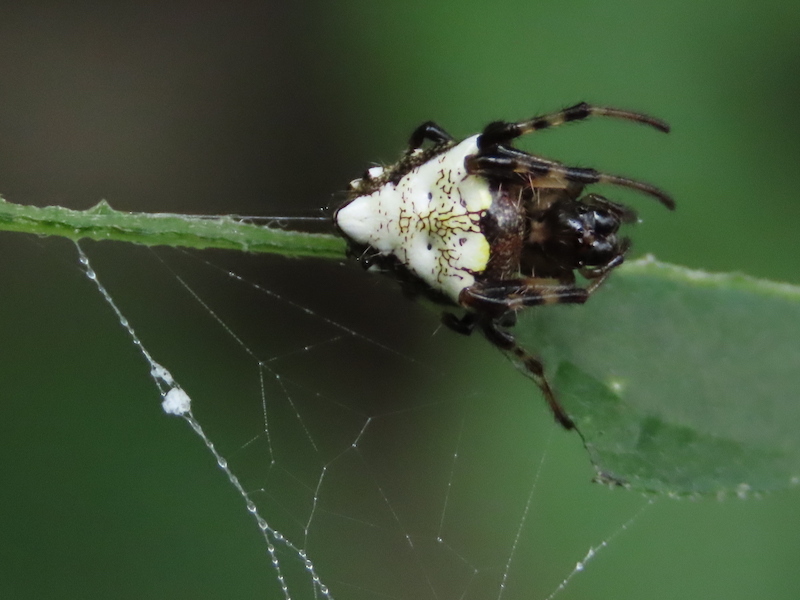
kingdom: Animalia
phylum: Arthropoda
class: Arachnida
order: Araneae
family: Araneidae
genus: Verrucosa
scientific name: Verrucosa arenata
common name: Orb weavers
